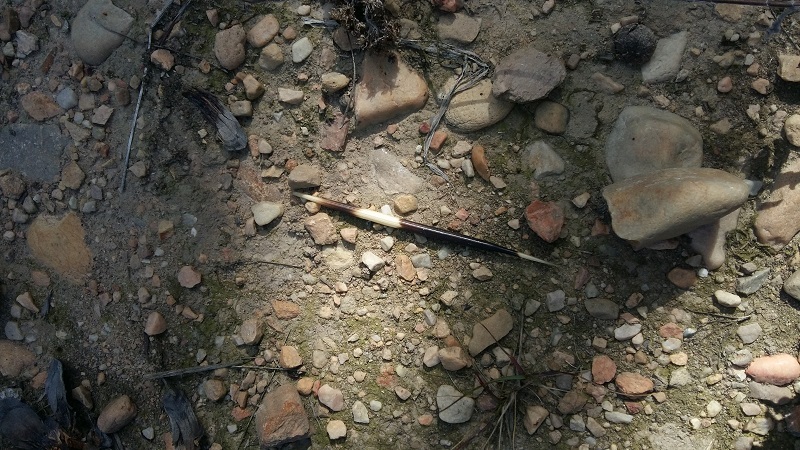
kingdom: Animalia
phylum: Chordata
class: Mammalia
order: Rodentia
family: Hystricidae
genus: Hystrix
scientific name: Hystrix africaeaustralis
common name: Cape porcupine
